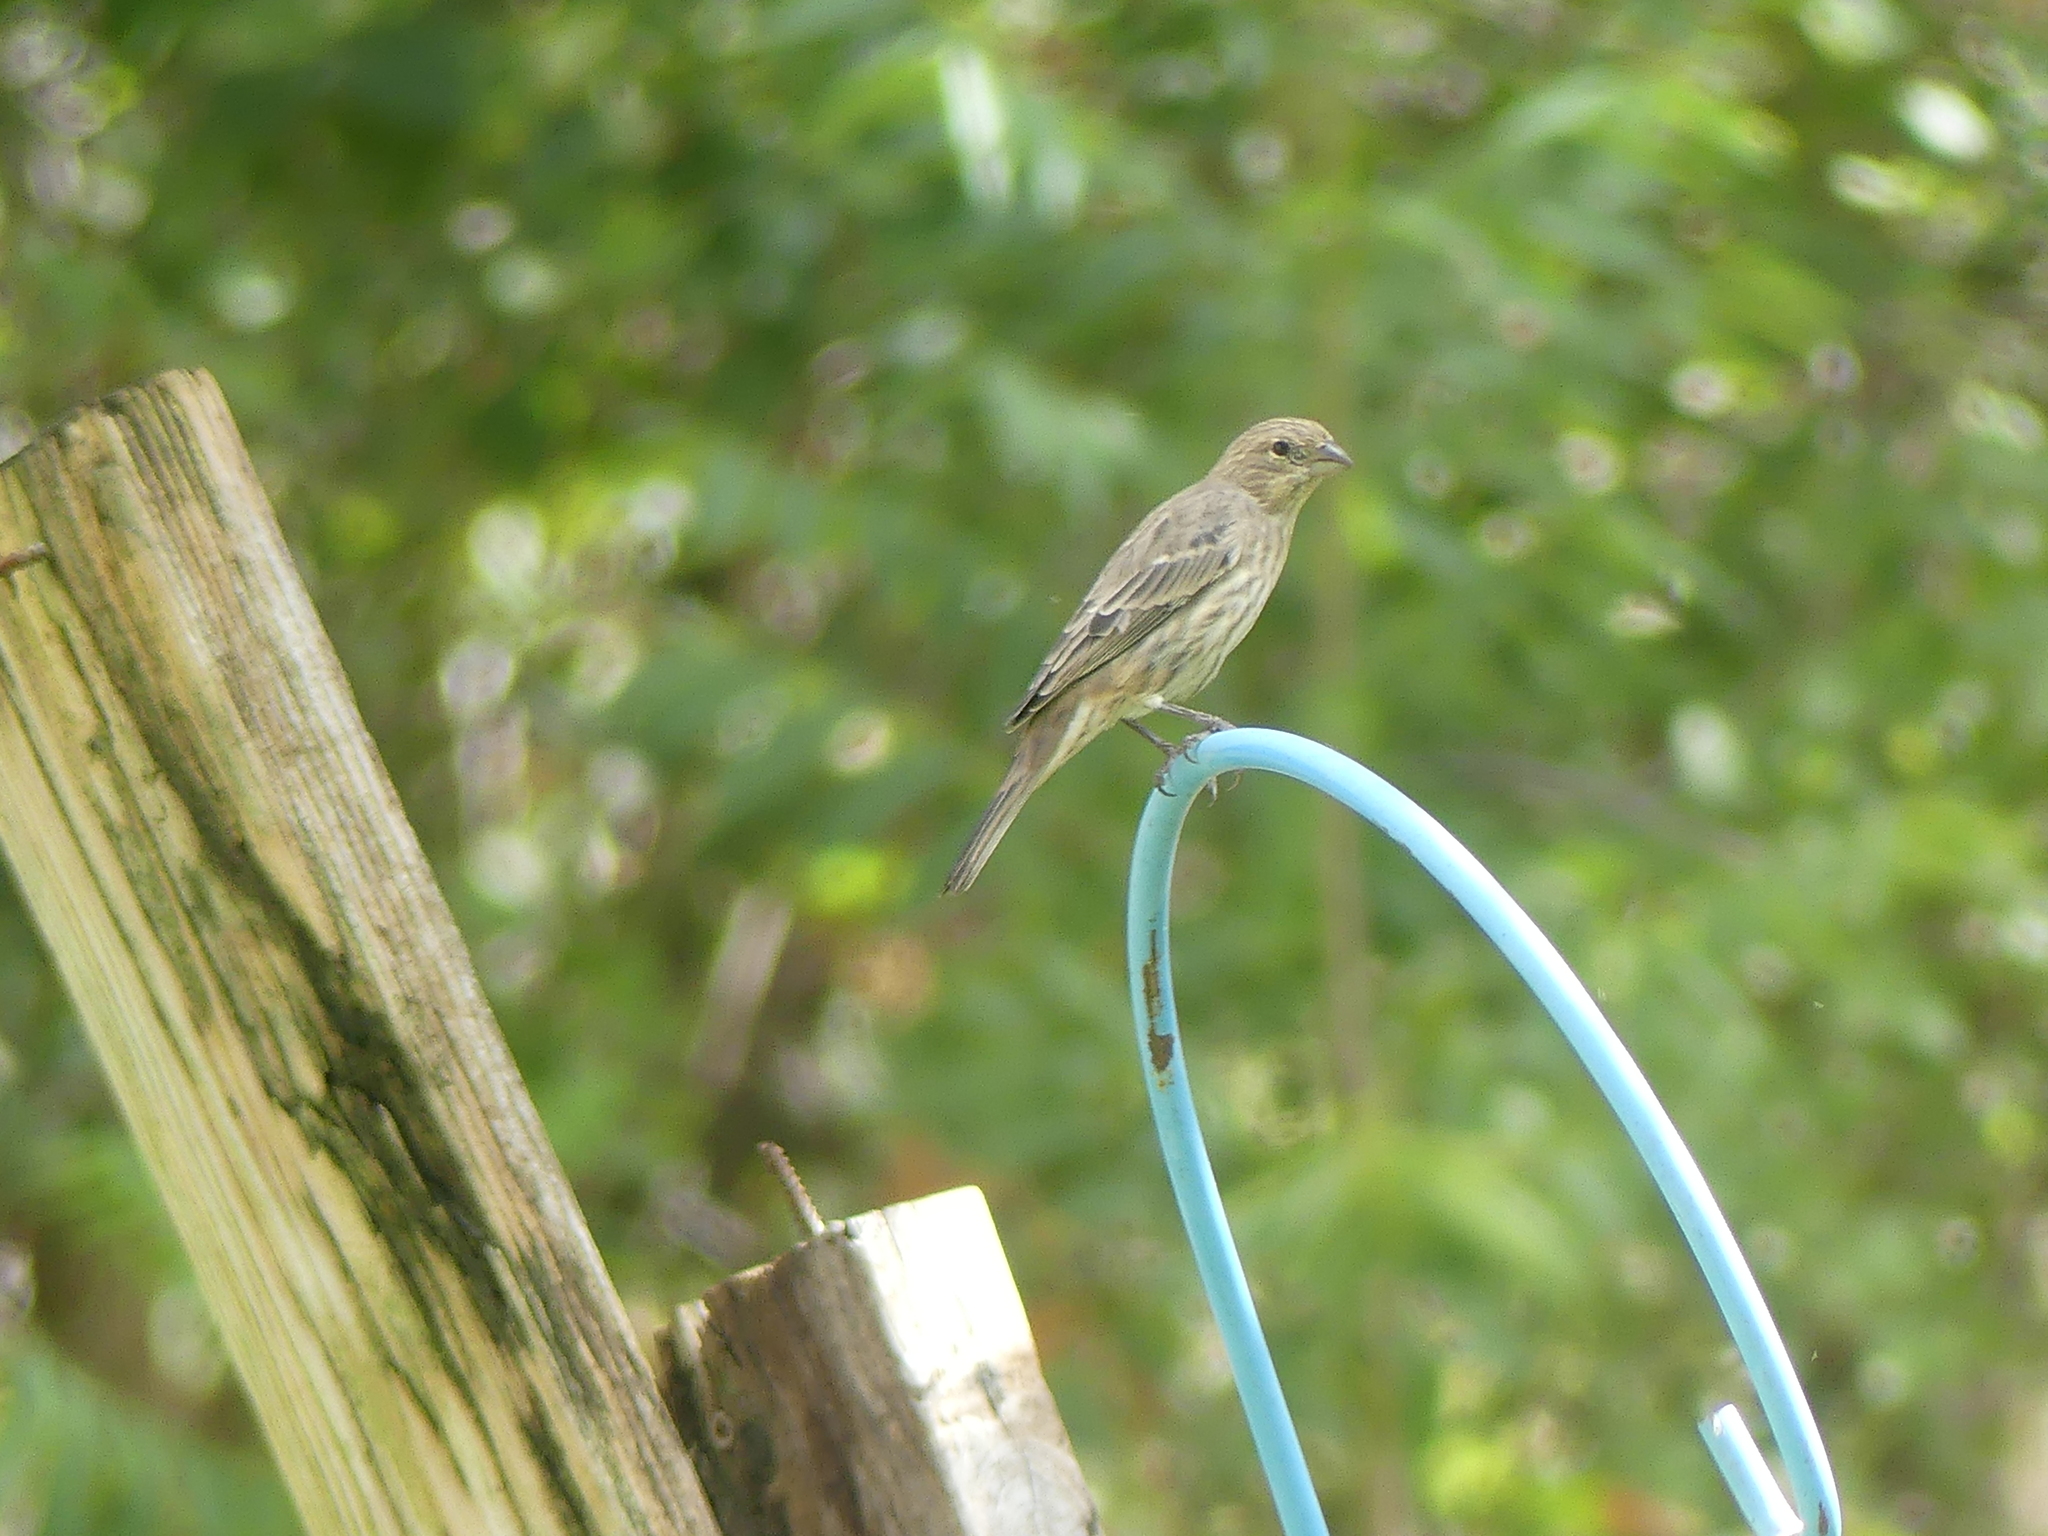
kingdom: Animalia
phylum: Chordata
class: Aves
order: Passeriformes
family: Fringillidae
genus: Haemorhous
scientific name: Haemorhous mexicanus
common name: House finch
